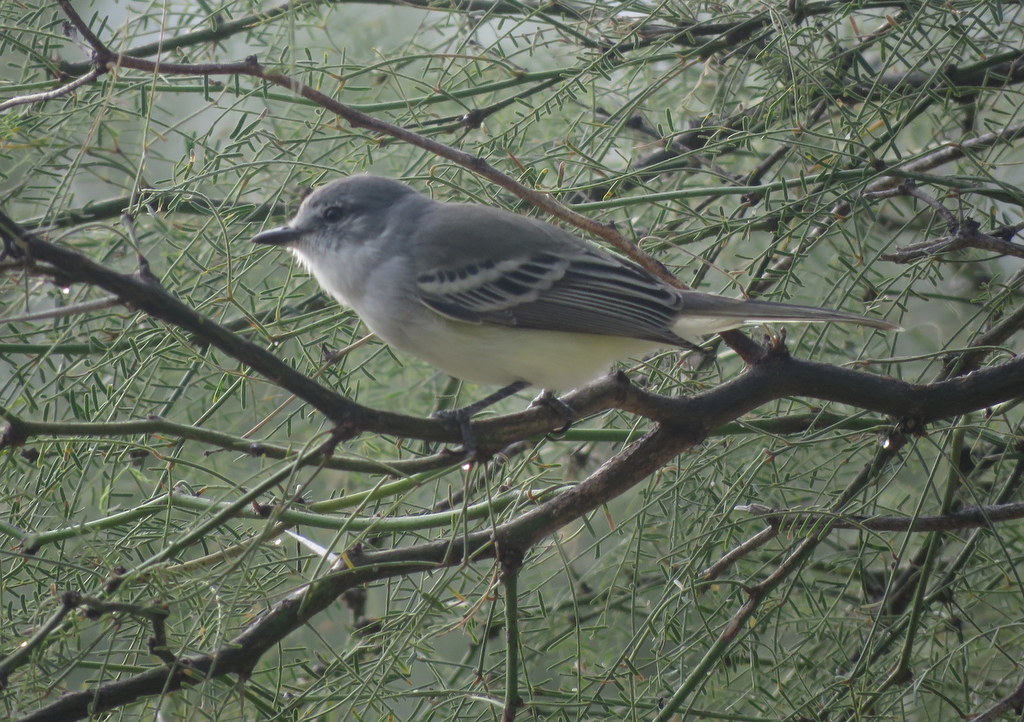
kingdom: Animalia
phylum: Chordata
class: Aves
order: Passeriformes
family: Tyrannidae
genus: Suiriri
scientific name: Suiriri suiriri
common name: Suiriri flycatcher
